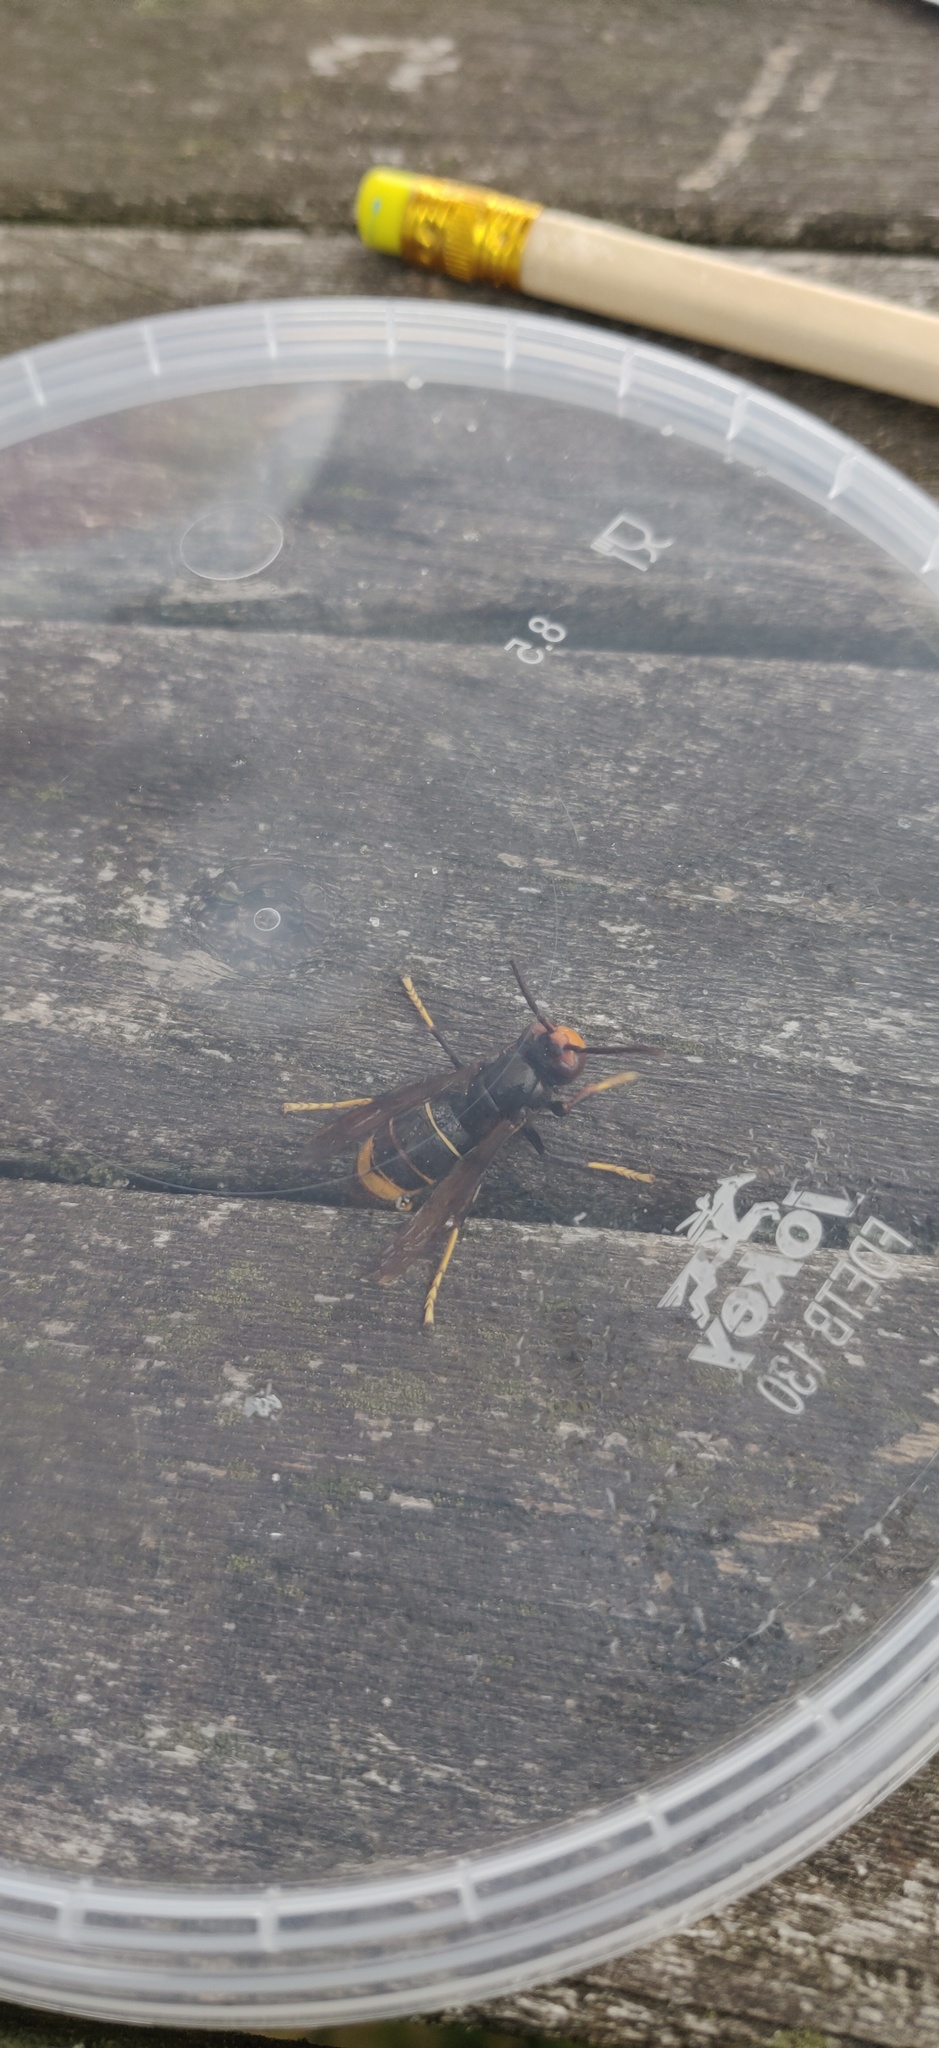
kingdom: Animalia
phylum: Arthropoda
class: Insecta
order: Hymenoptera
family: Vespidae
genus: Vespa
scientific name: Vespa velutina
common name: Asian hornet
